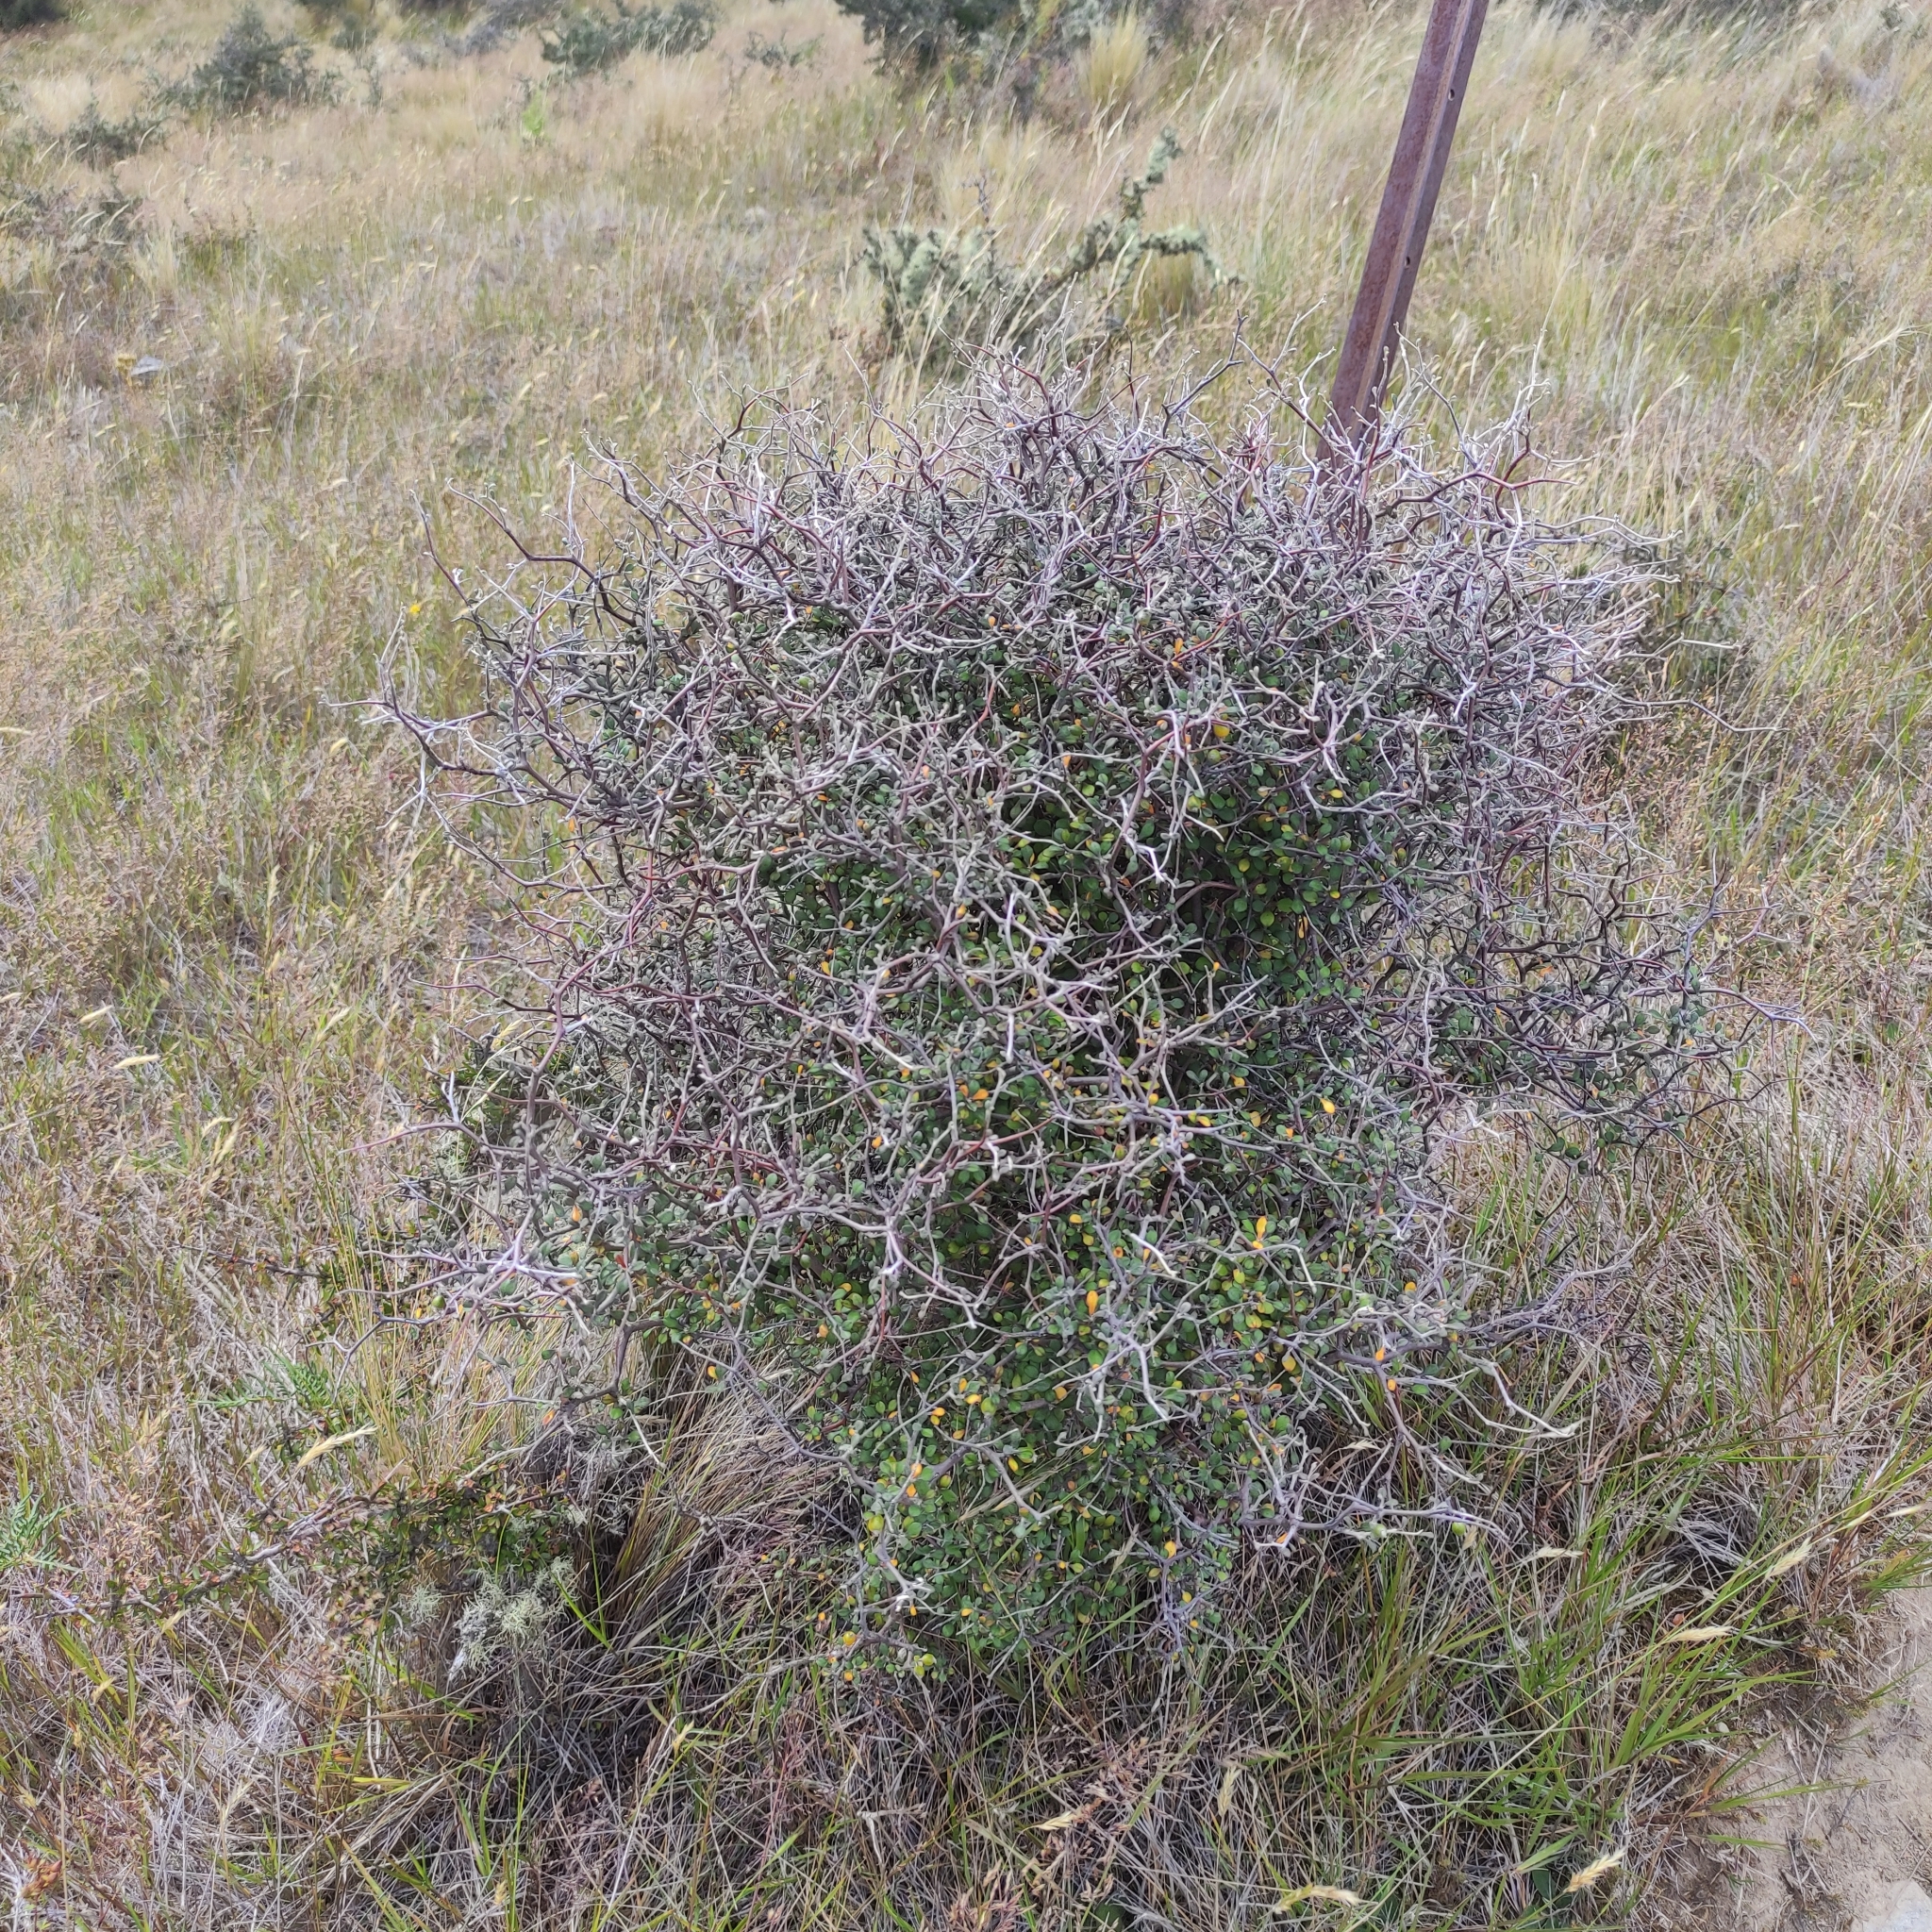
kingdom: Plantae
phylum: Tracheophyta
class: Magnoliopsida
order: Asterales
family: Argophyllaceae
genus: Corokia
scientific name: Corokia cotoneaster
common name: Wire nettingbush
